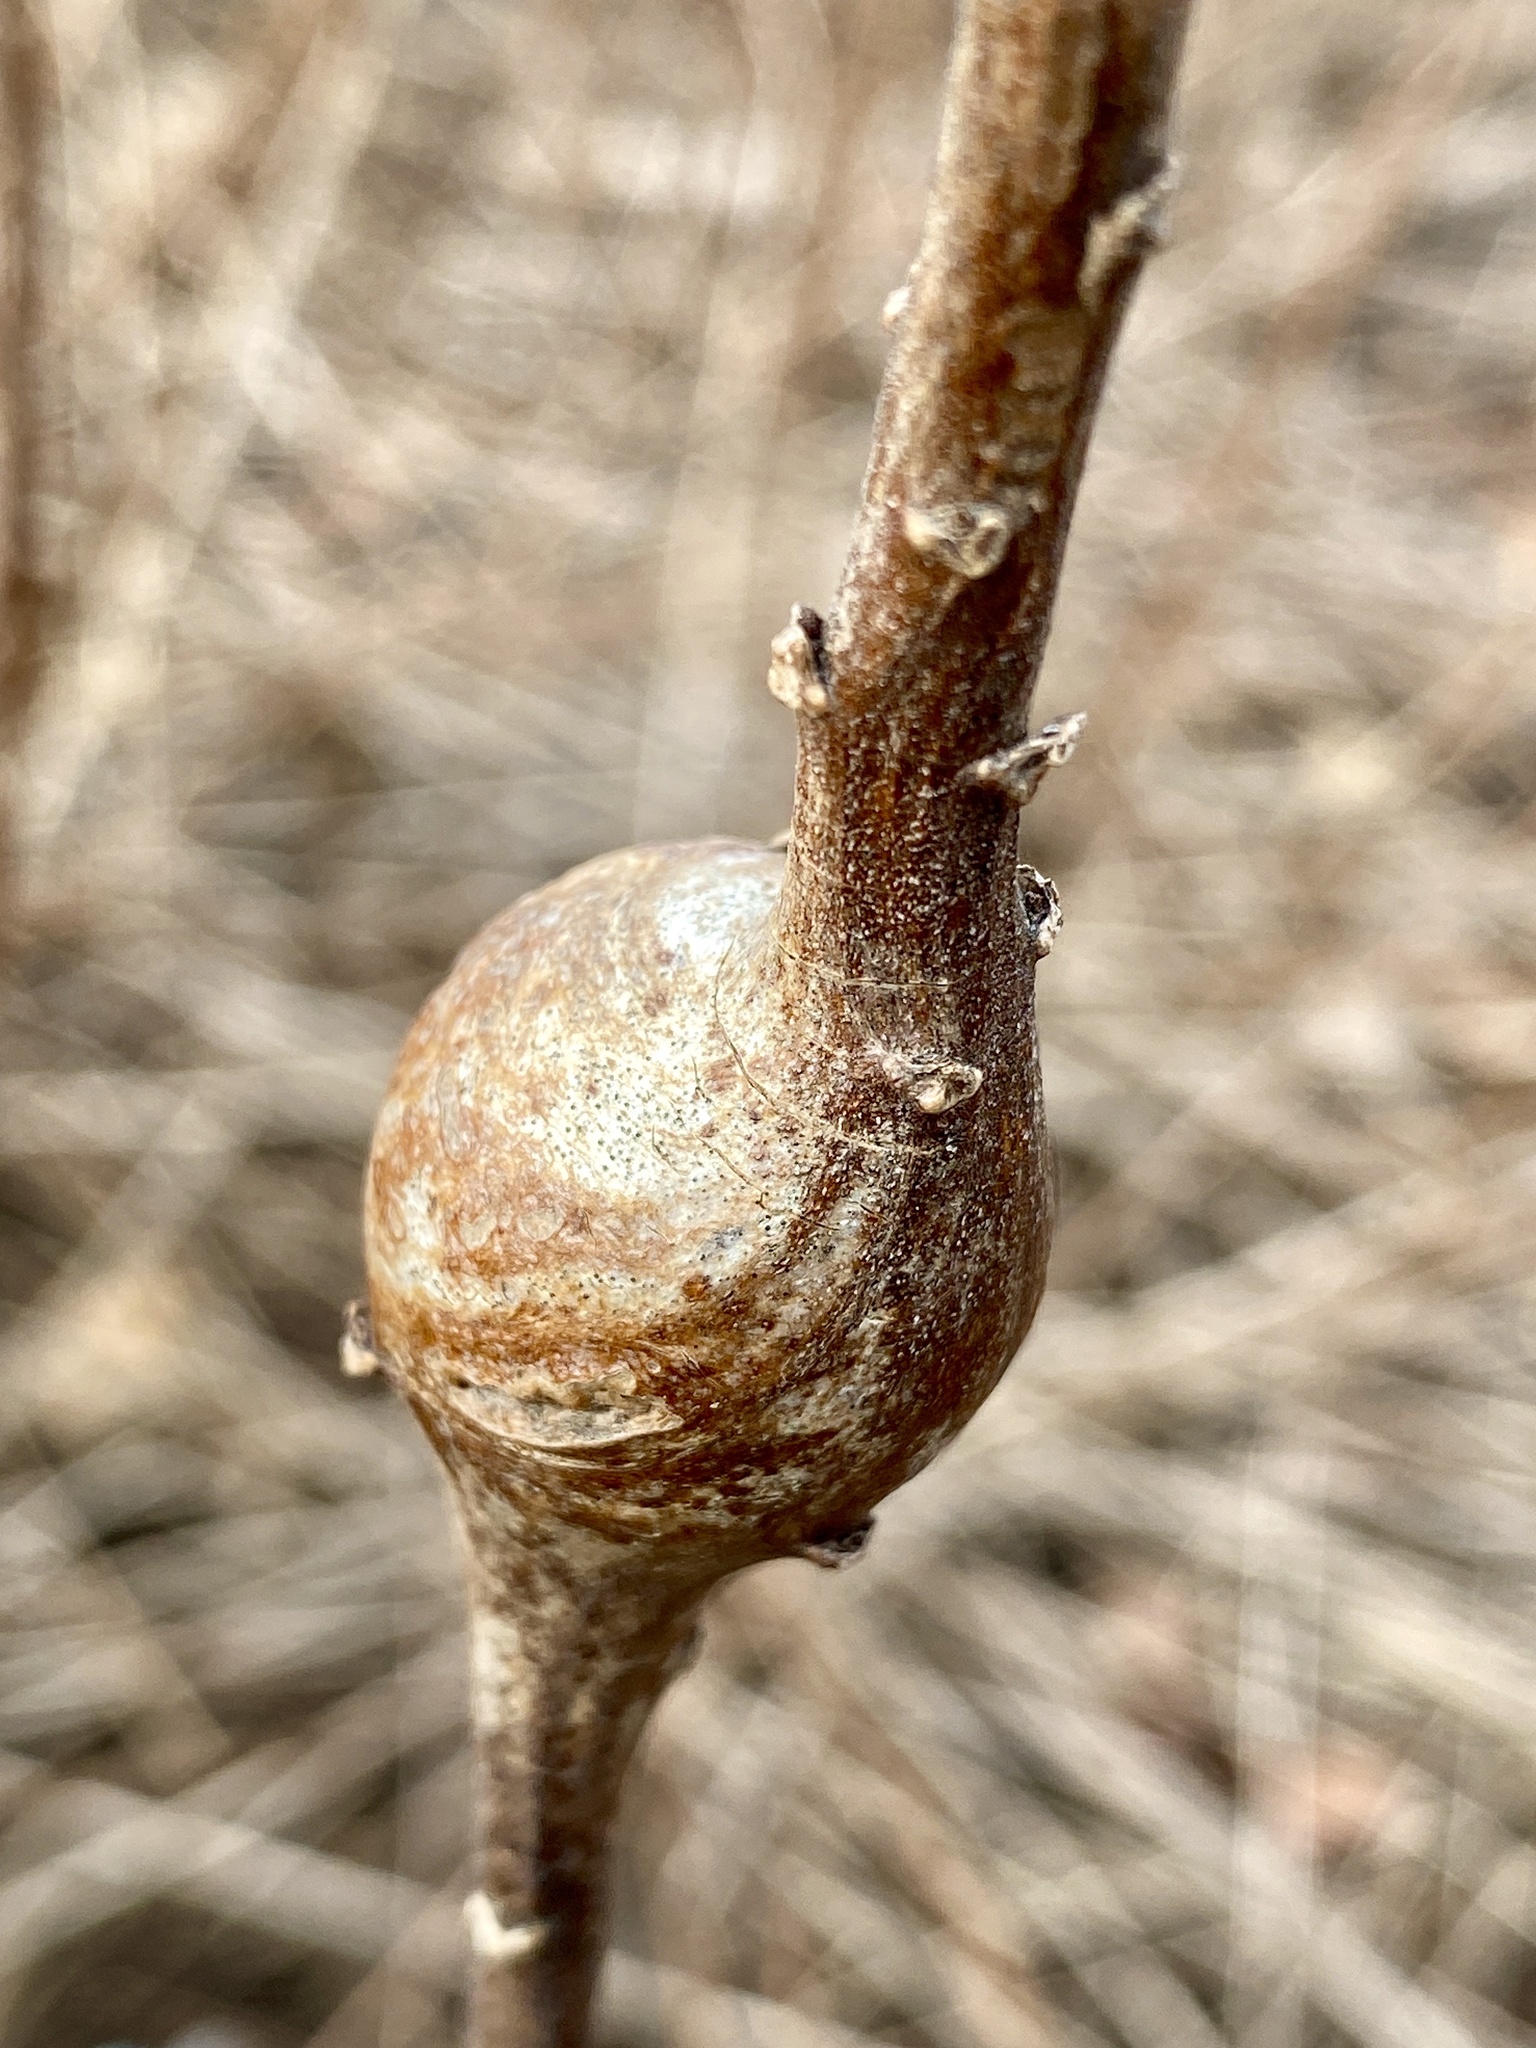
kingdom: Animalia
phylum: Arthropoda
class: Insecta
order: Diptera
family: Tephritidae
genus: Eurosta
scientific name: Eurosta solidaginis
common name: Goldenrod gall fly
